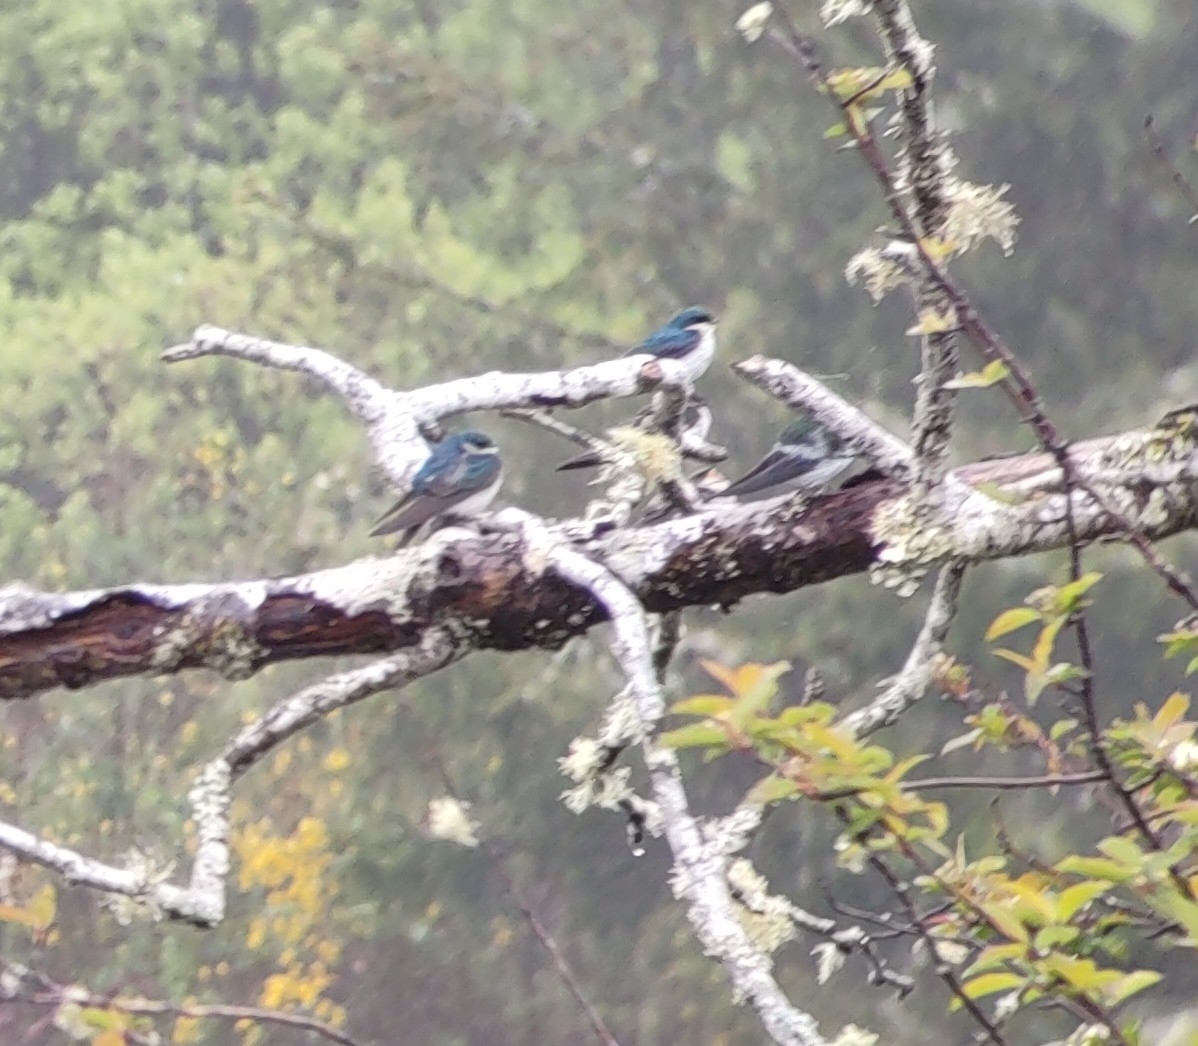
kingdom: Animalia
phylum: Chordata
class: Aves
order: Passeriformes
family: Hirundinidae
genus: Tachycineta
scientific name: Tachycineta bicolor
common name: Tree swallow
